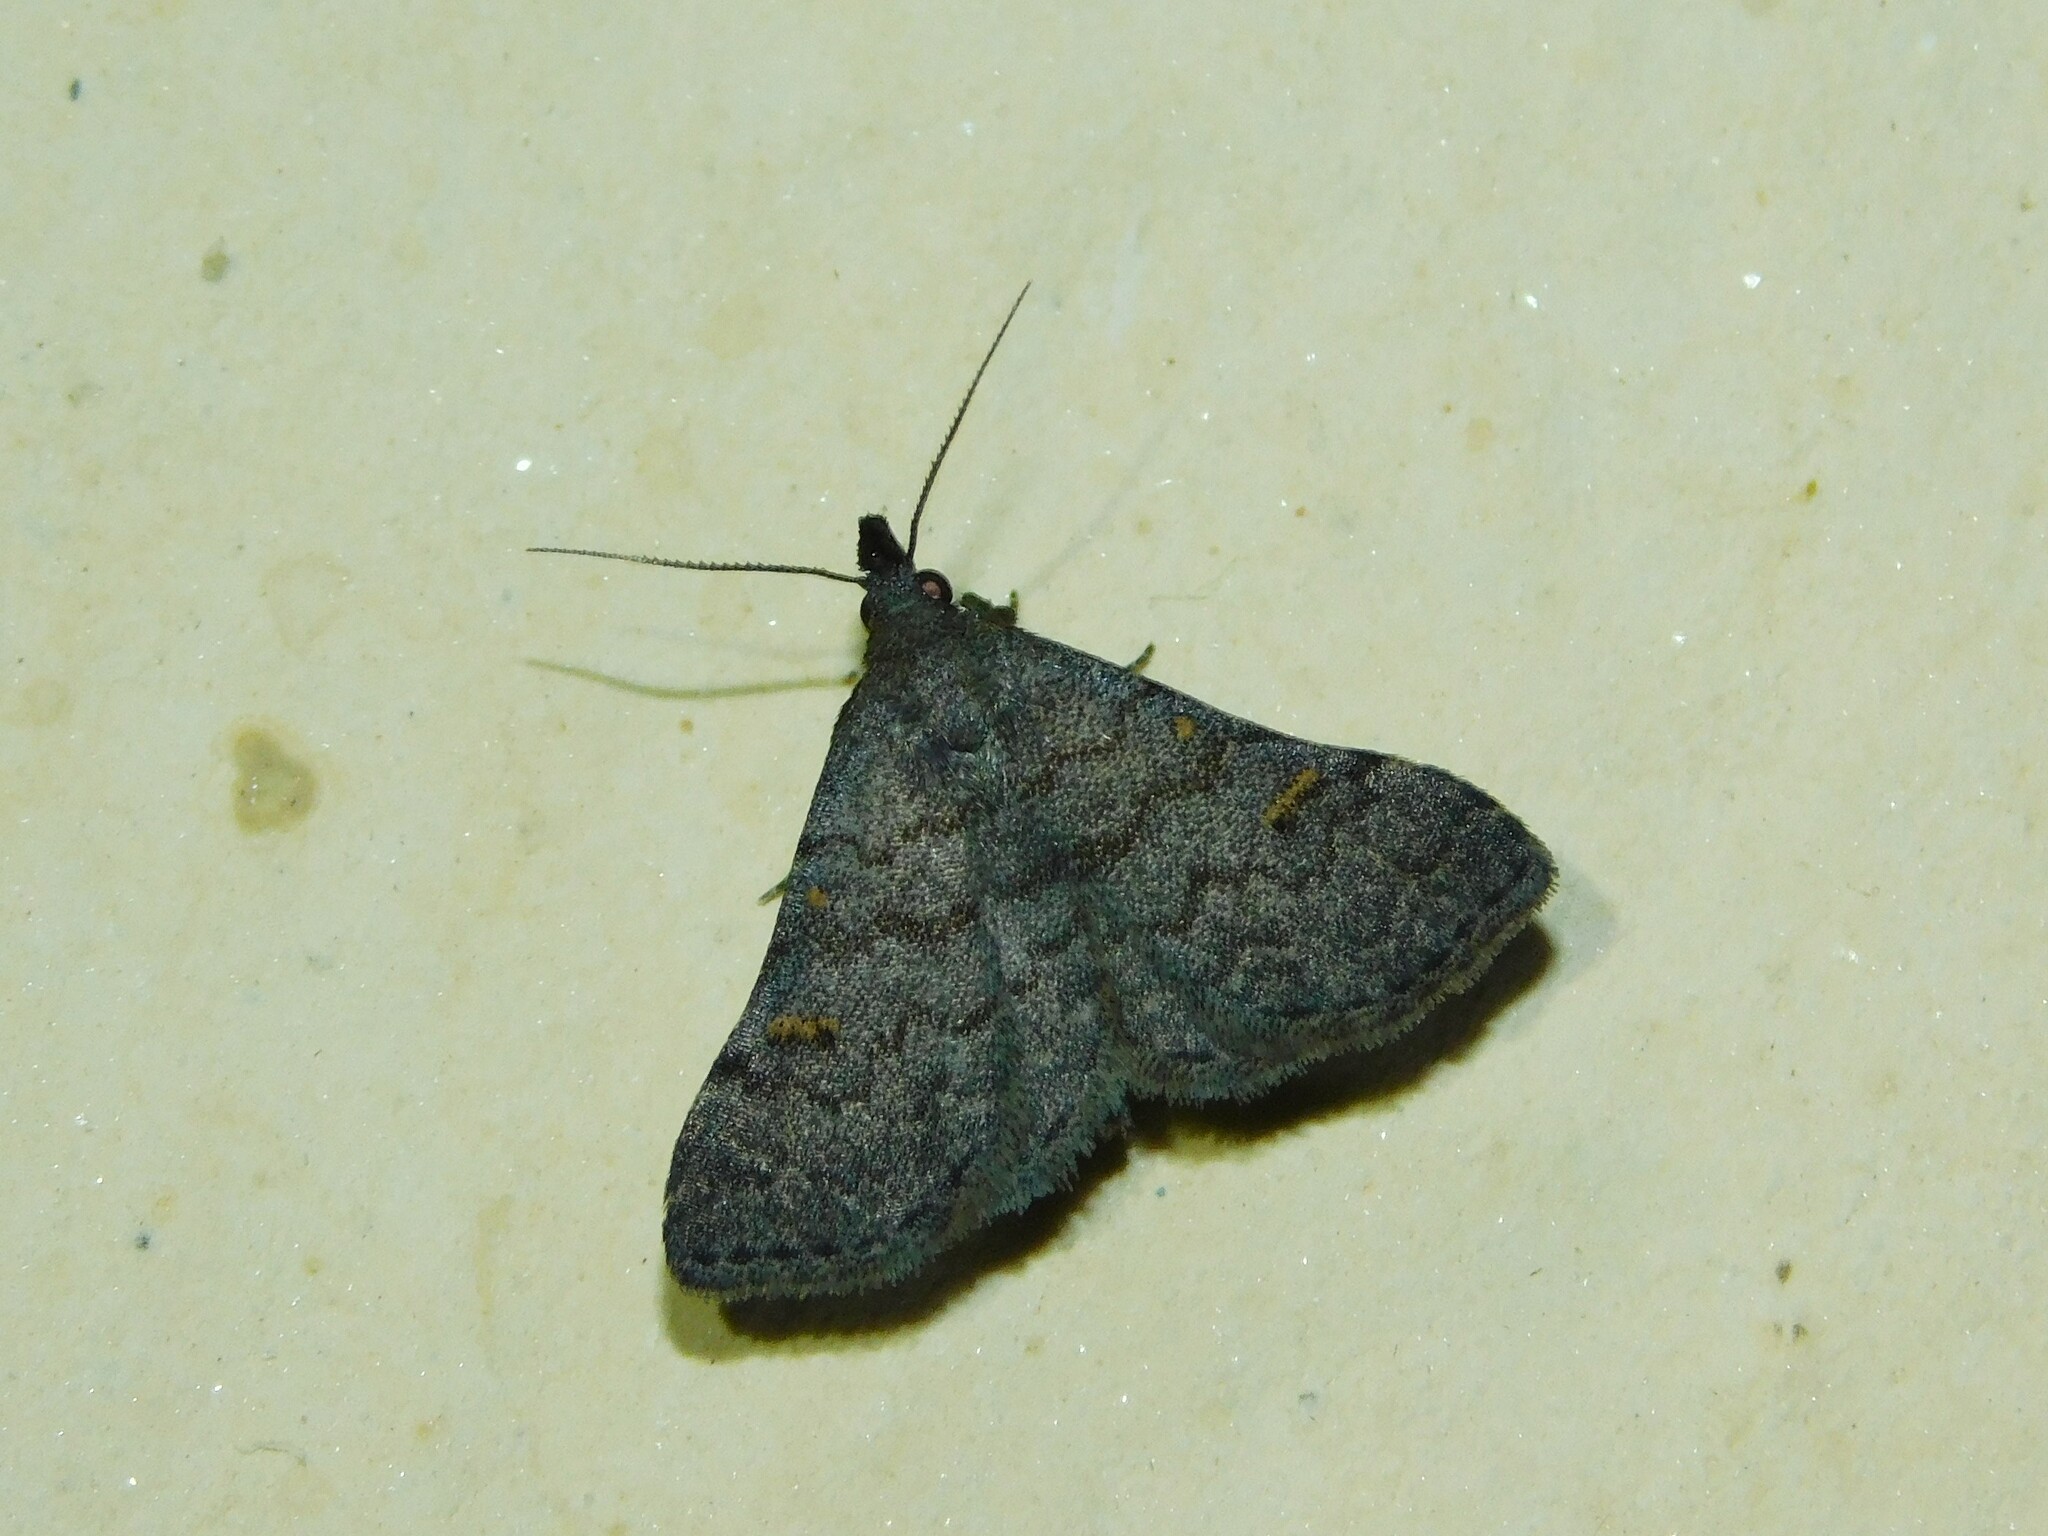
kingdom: Animalia
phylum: Arthropoda
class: Insecta
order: Lepidoptera
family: Erebidae
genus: Naarda
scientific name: Naarda xanthonephroides
